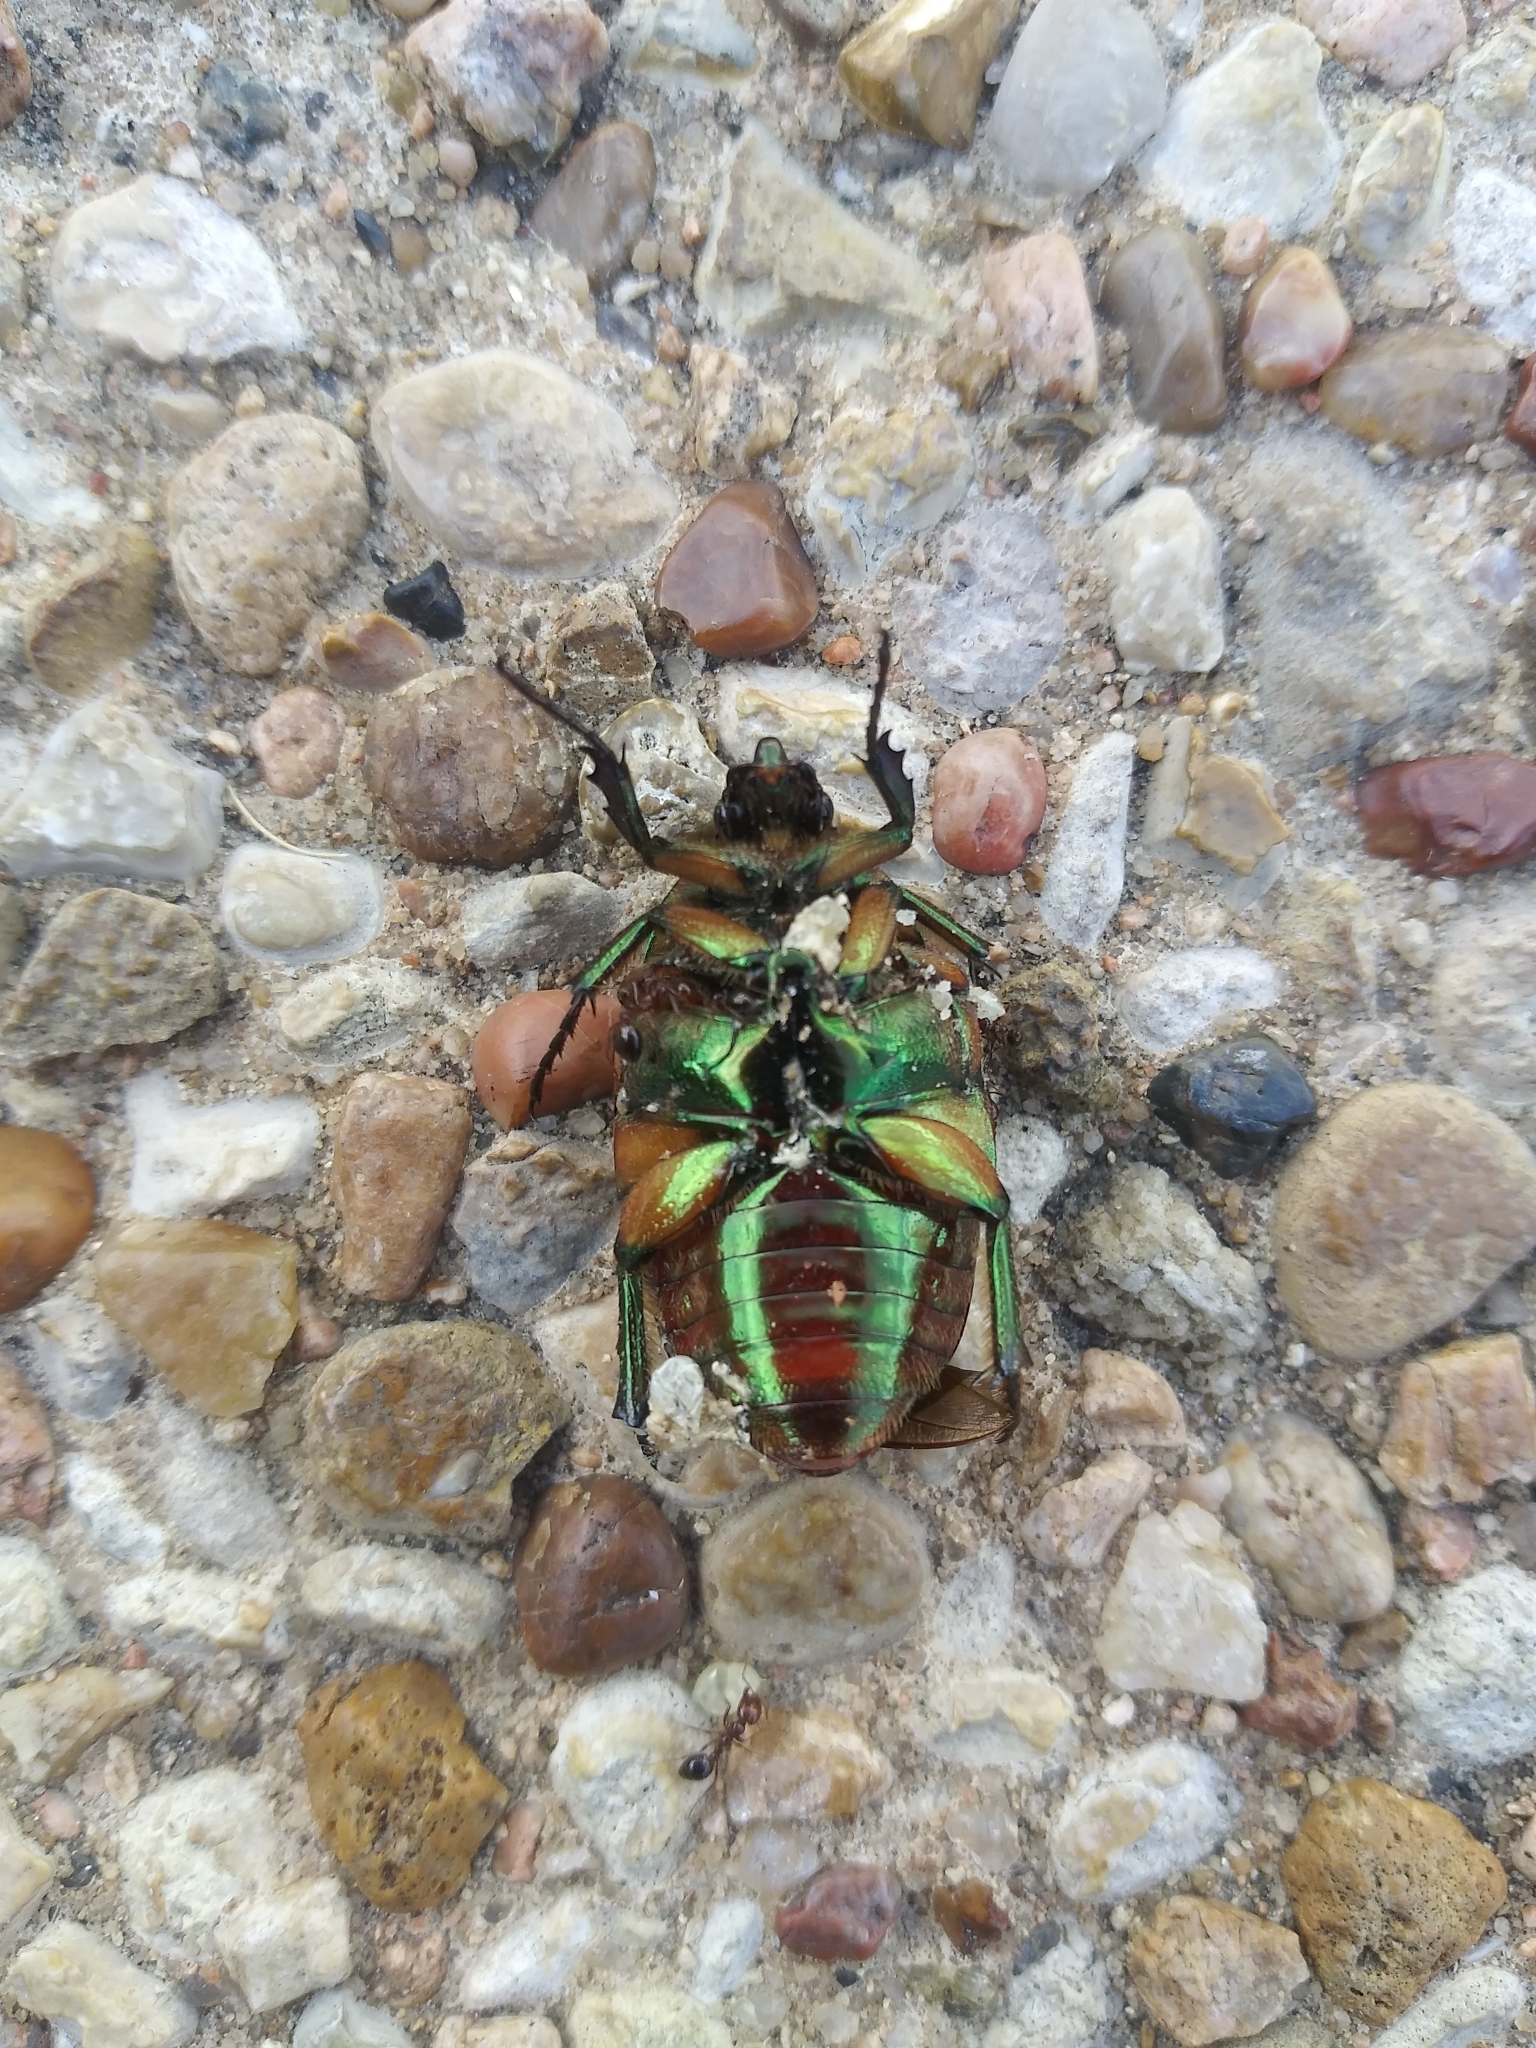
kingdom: Animalia
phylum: Arthropoda
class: Insecta
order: Coleoptera
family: Scarabaeidae
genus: Cotinis
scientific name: Cotinis nitida
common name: Common green june beetle
